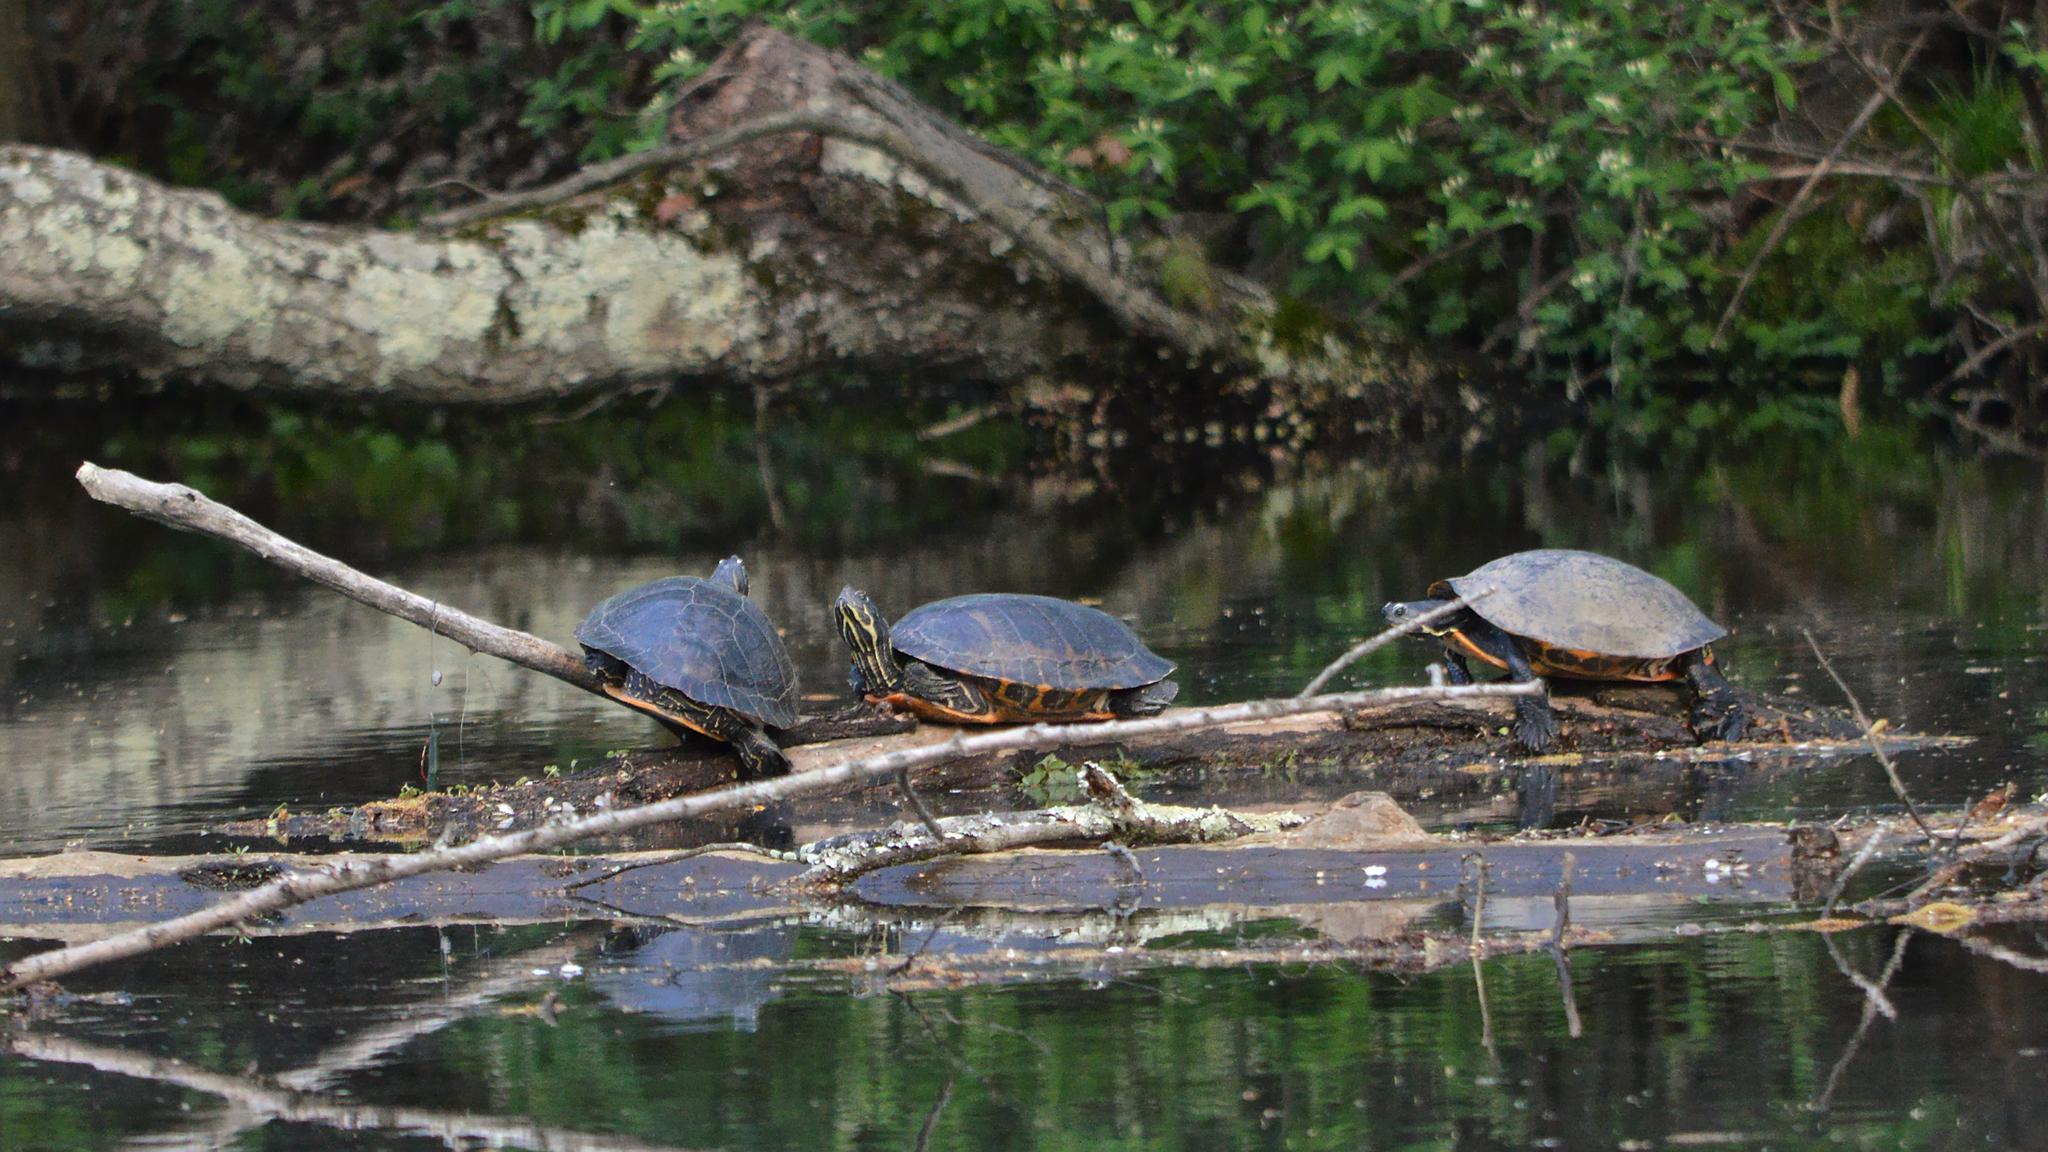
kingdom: Animalia
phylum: Chordata
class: Testudines
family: Emydidae
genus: Pseudemys
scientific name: Pseudemys rubriventris
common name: American red-bellied turtle
